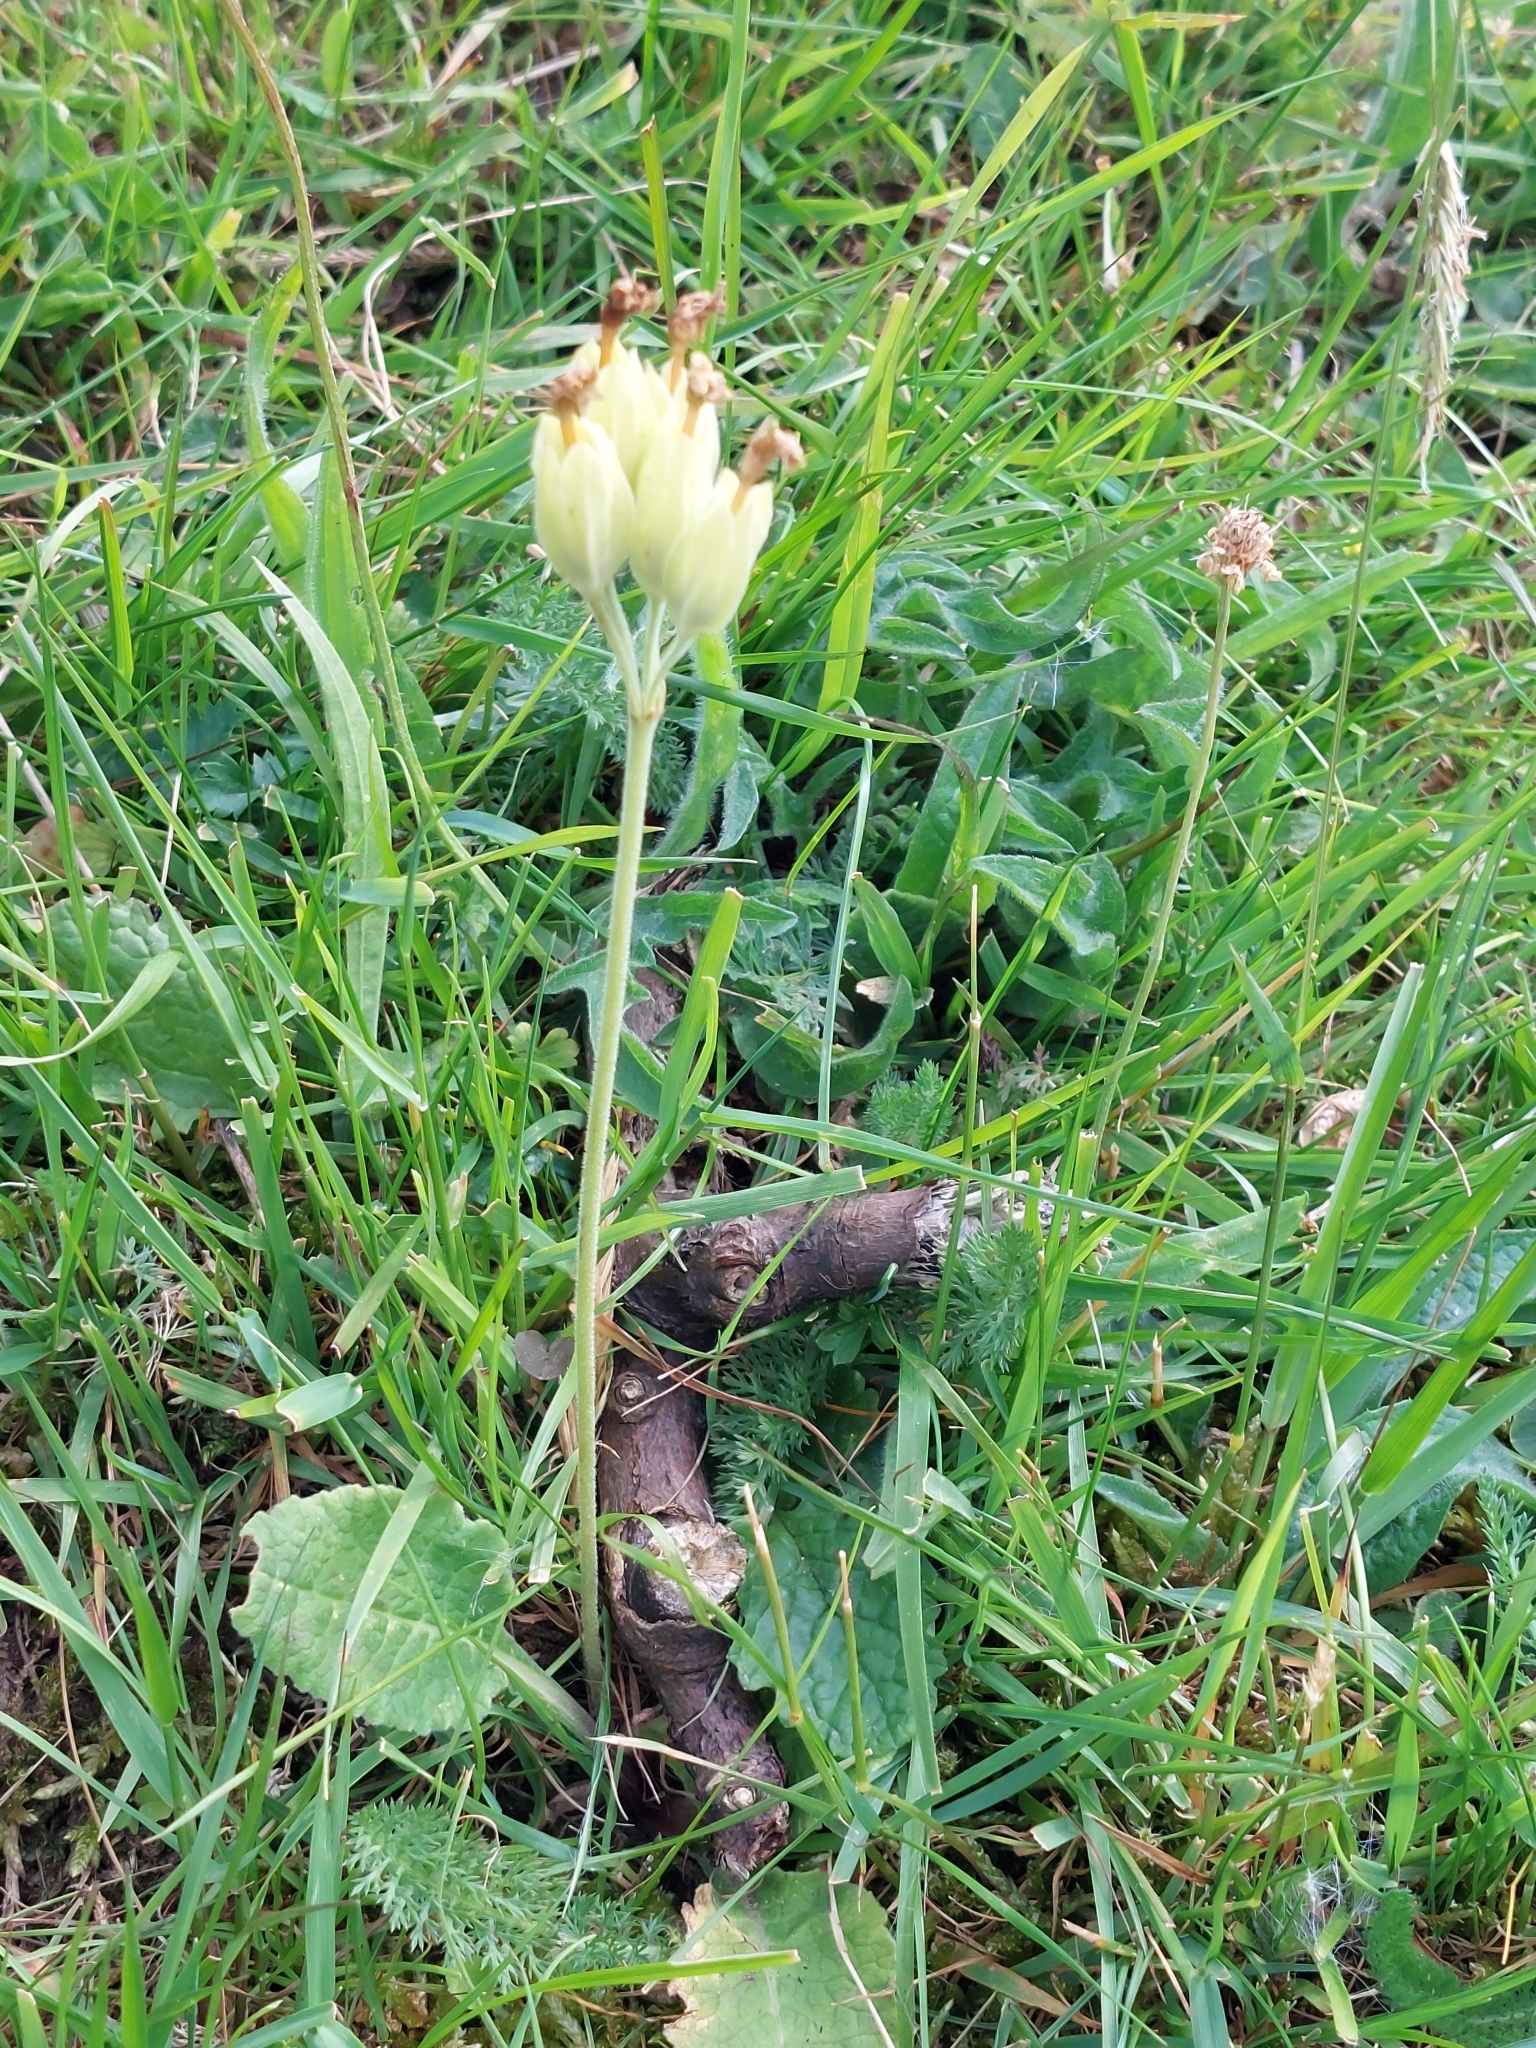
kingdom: Plantae
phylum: Tracheophyta
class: Magnoliopsida
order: Ericales
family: Primulaceae
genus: Primula
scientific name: Primula veris
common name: Cowslip
